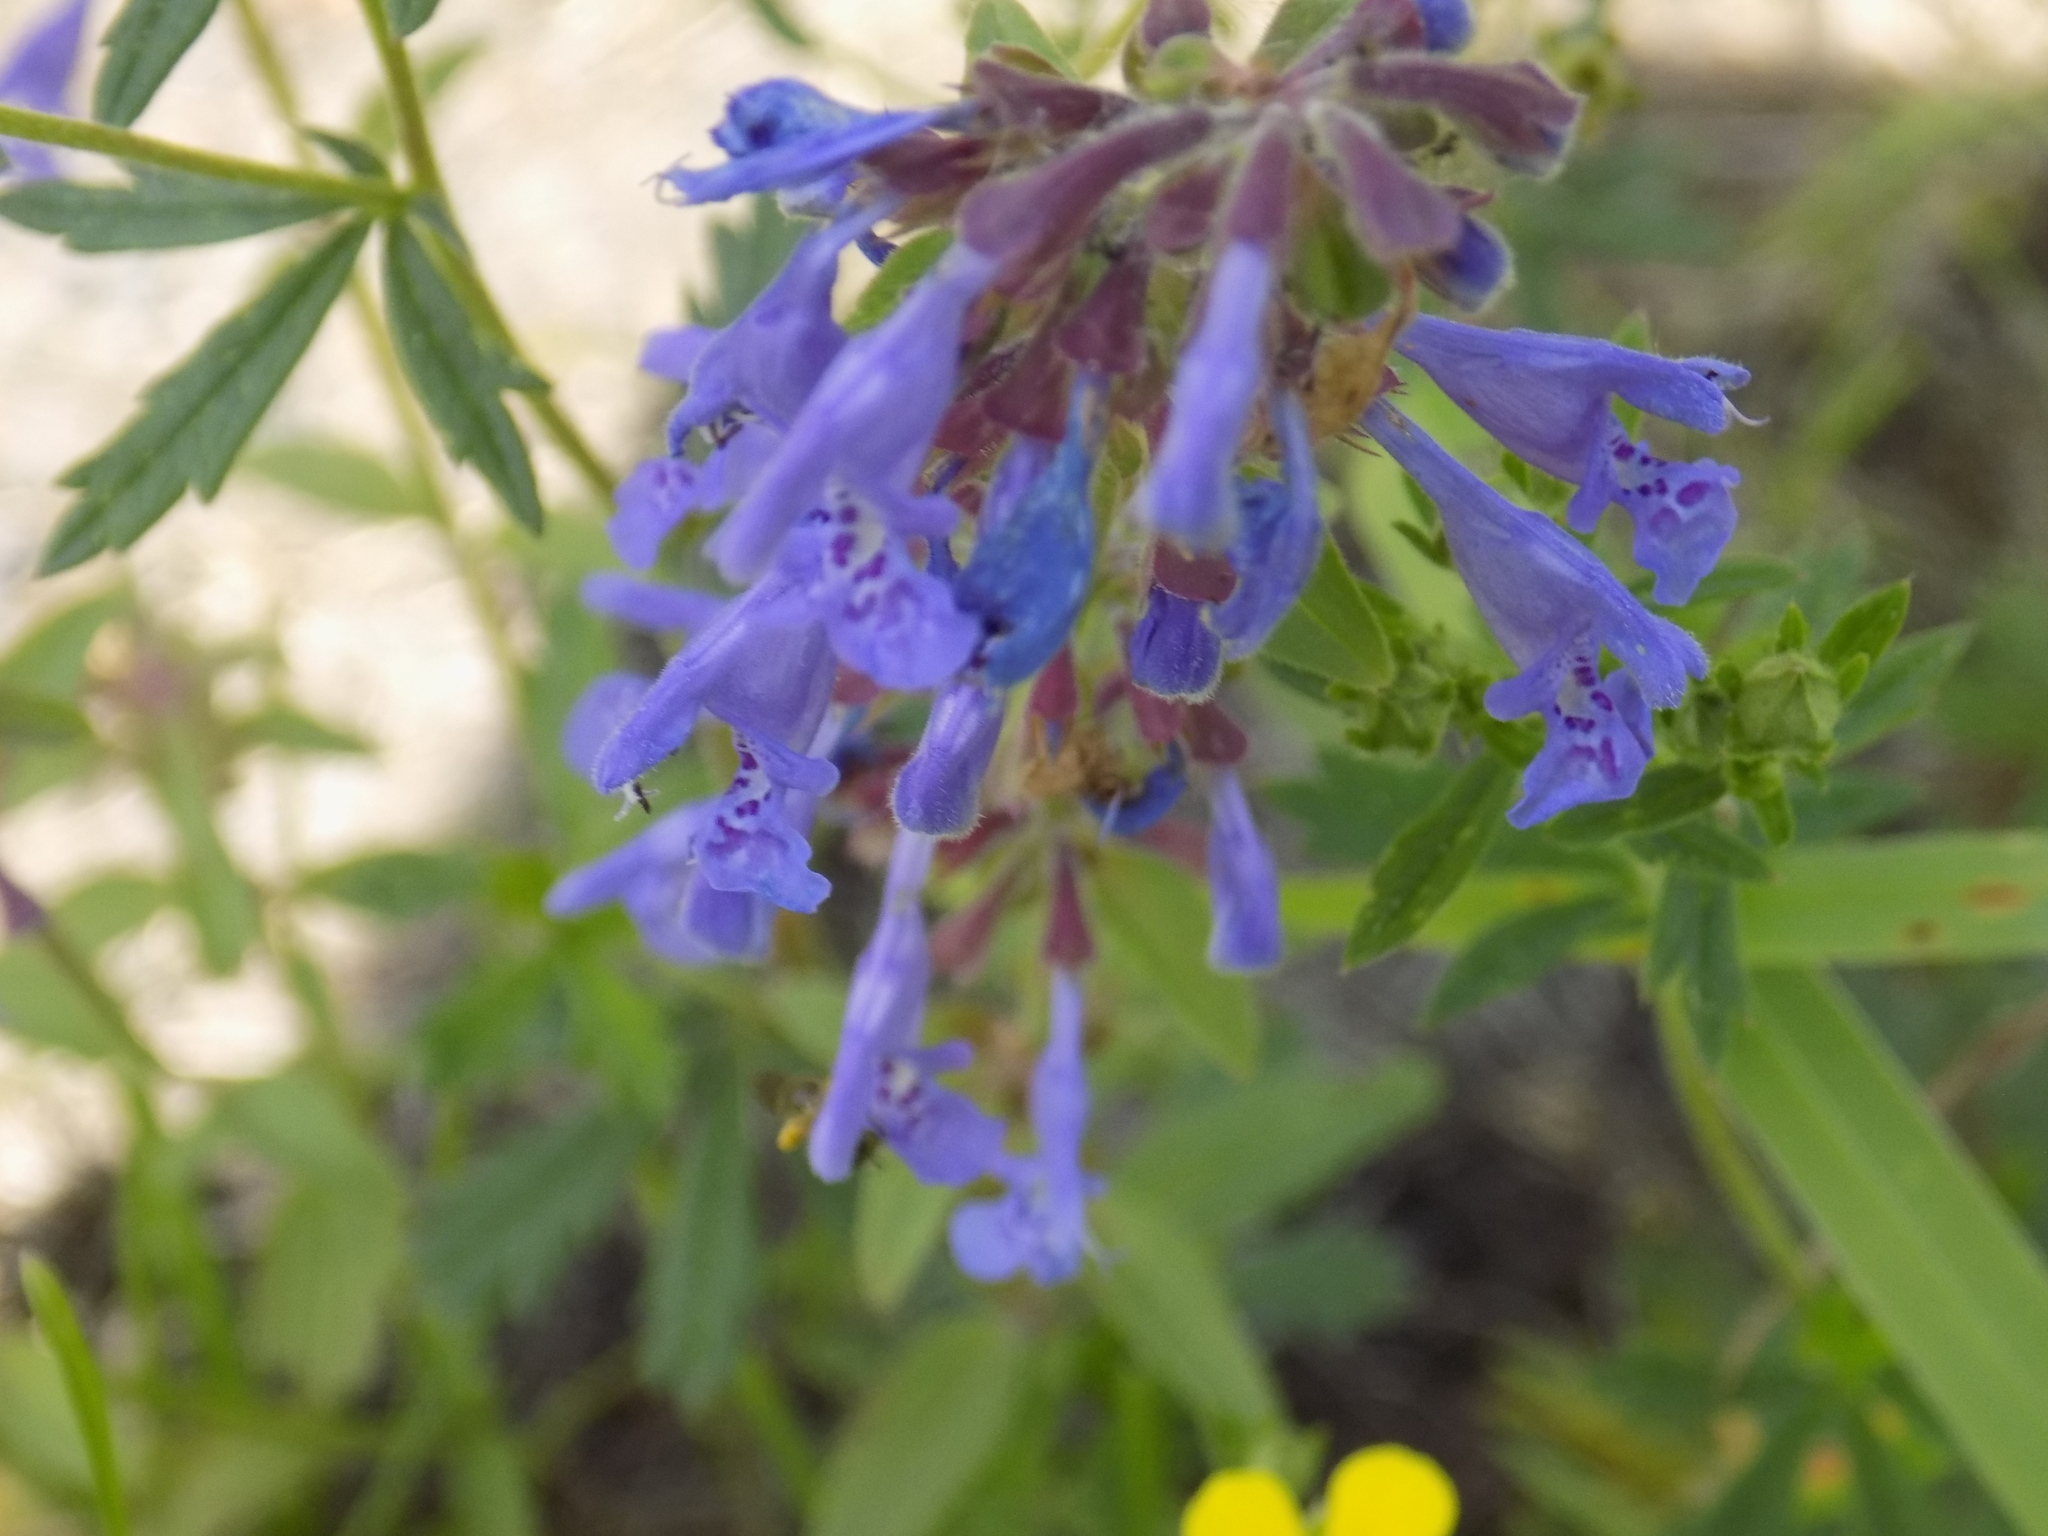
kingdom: Plantae
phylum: Tracheophyta
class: Magnoliopsida
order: Lamiales
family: Lamiaceae
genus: Dracocephalum
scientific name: Dracocephalum nutans
